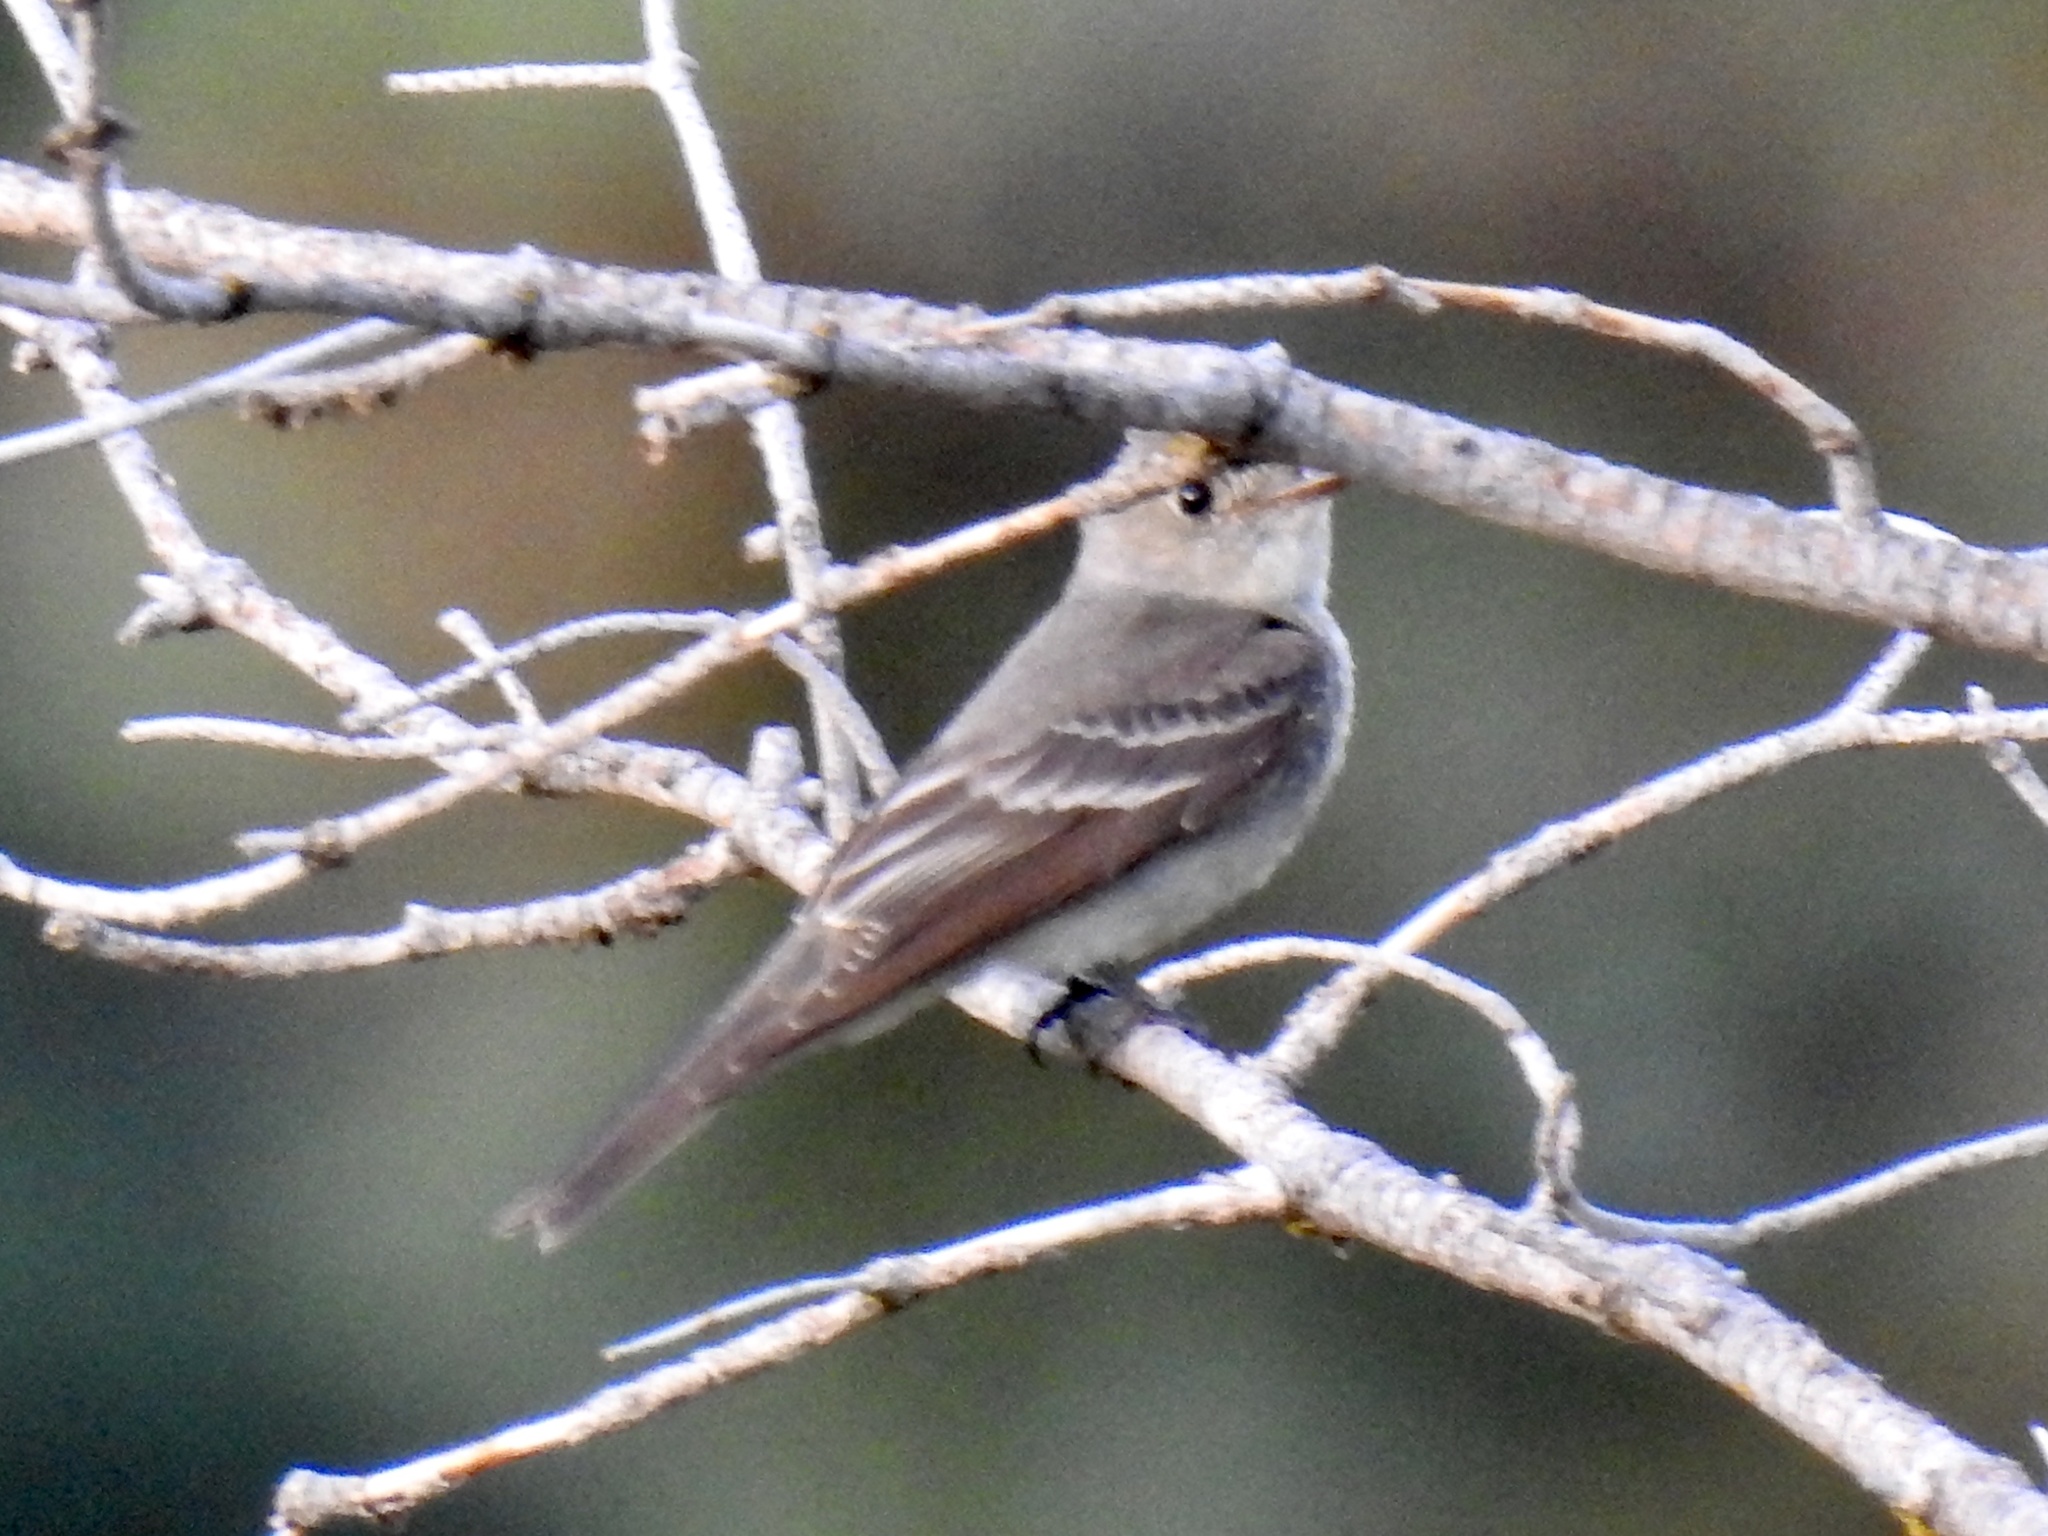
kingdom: Animalia
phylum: Chordata
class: Aves
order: Passeriformes
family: Tyrannidae
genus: Contopus
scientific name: Contopus sordidulus
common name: Western wood-pewee
